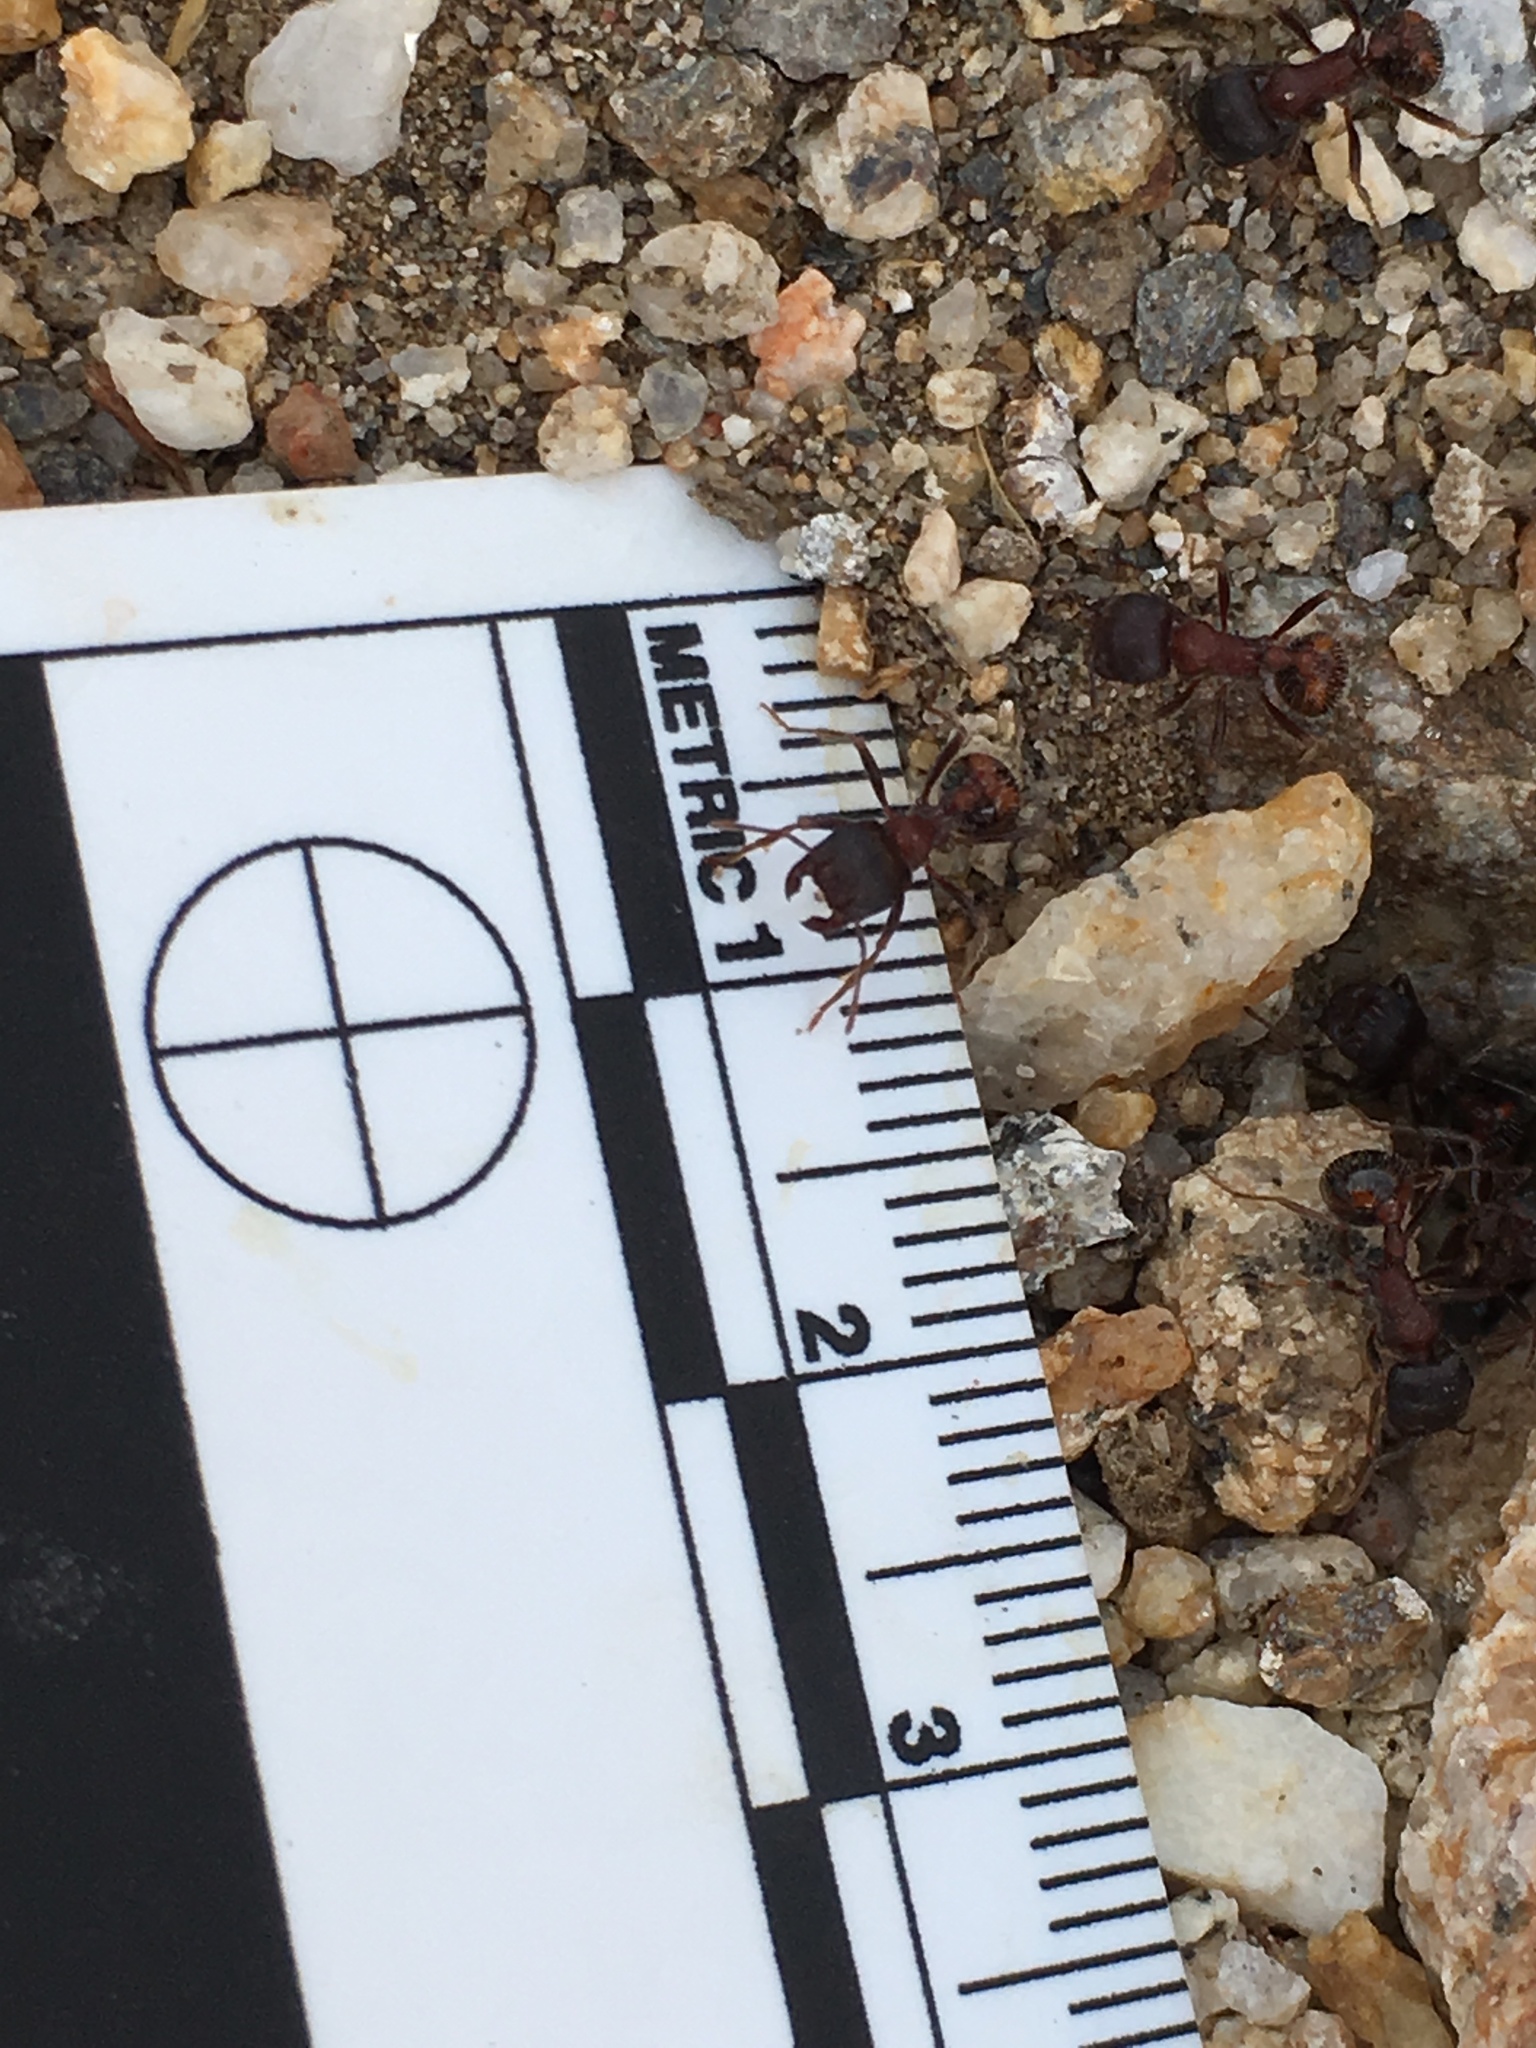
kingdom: Animalia
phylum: Arthropoda
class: Insecta
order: Hymenoptera
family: Formicidae
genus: Pogonomyrmex
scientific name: Pogonomyrmex rugosus
